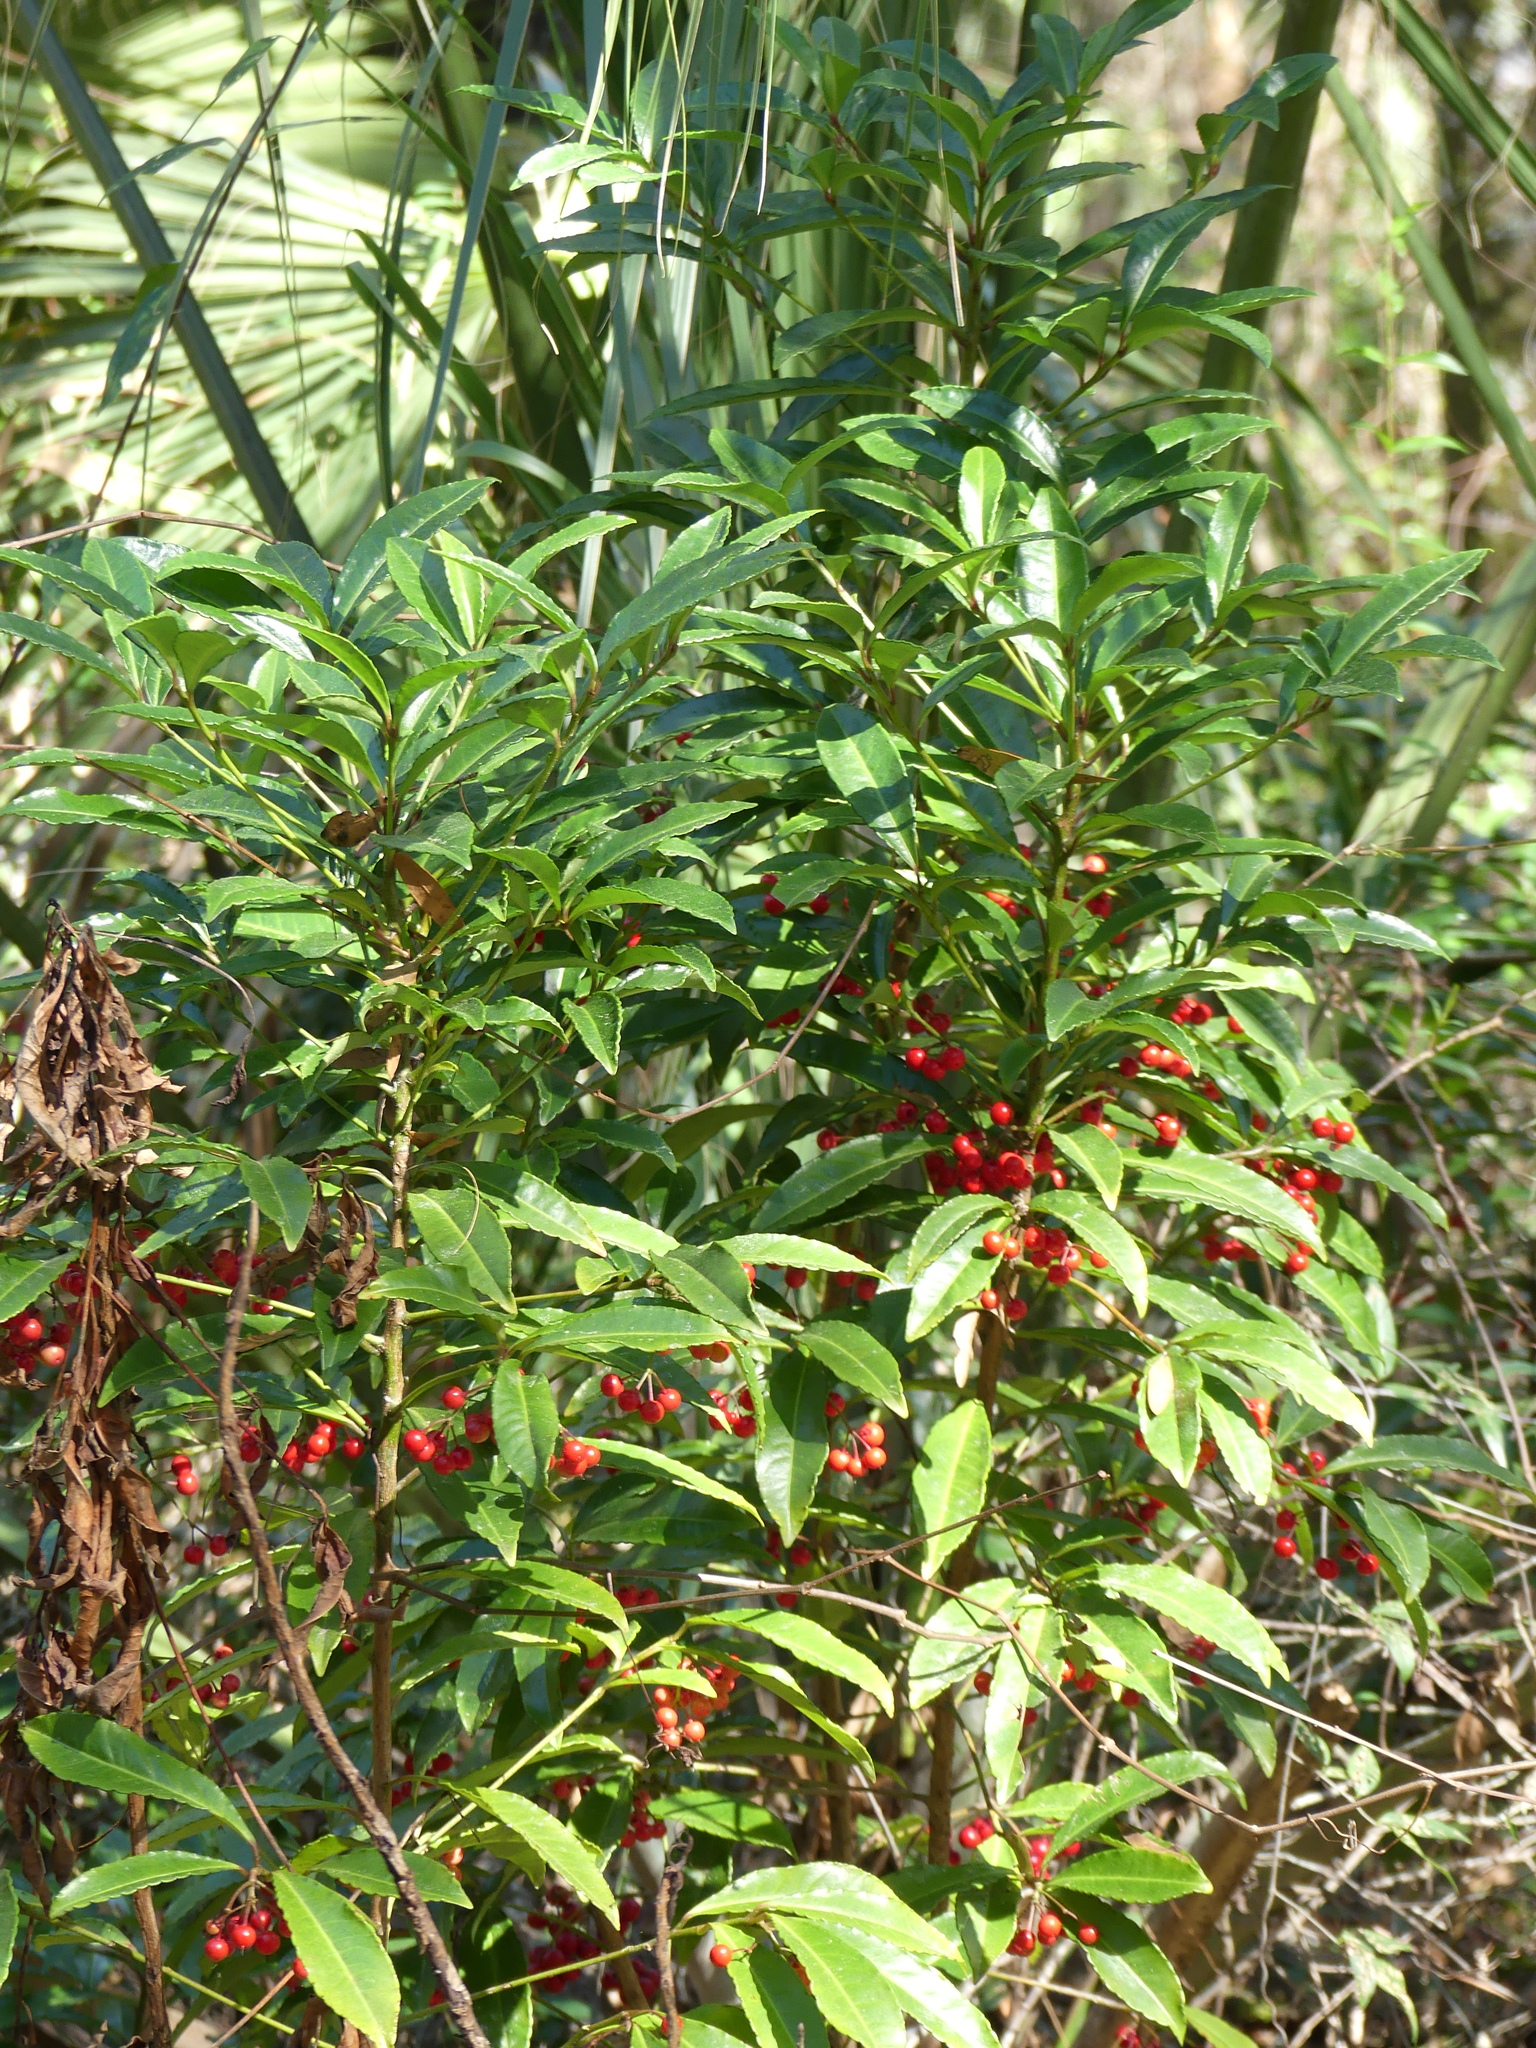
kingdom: Plantae
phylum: Tracheophyta
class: Magnoliopsida
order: Ericales
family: Primulaceae
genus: Ardisia
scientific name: Ardisia crenata
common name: Hen's eyes
